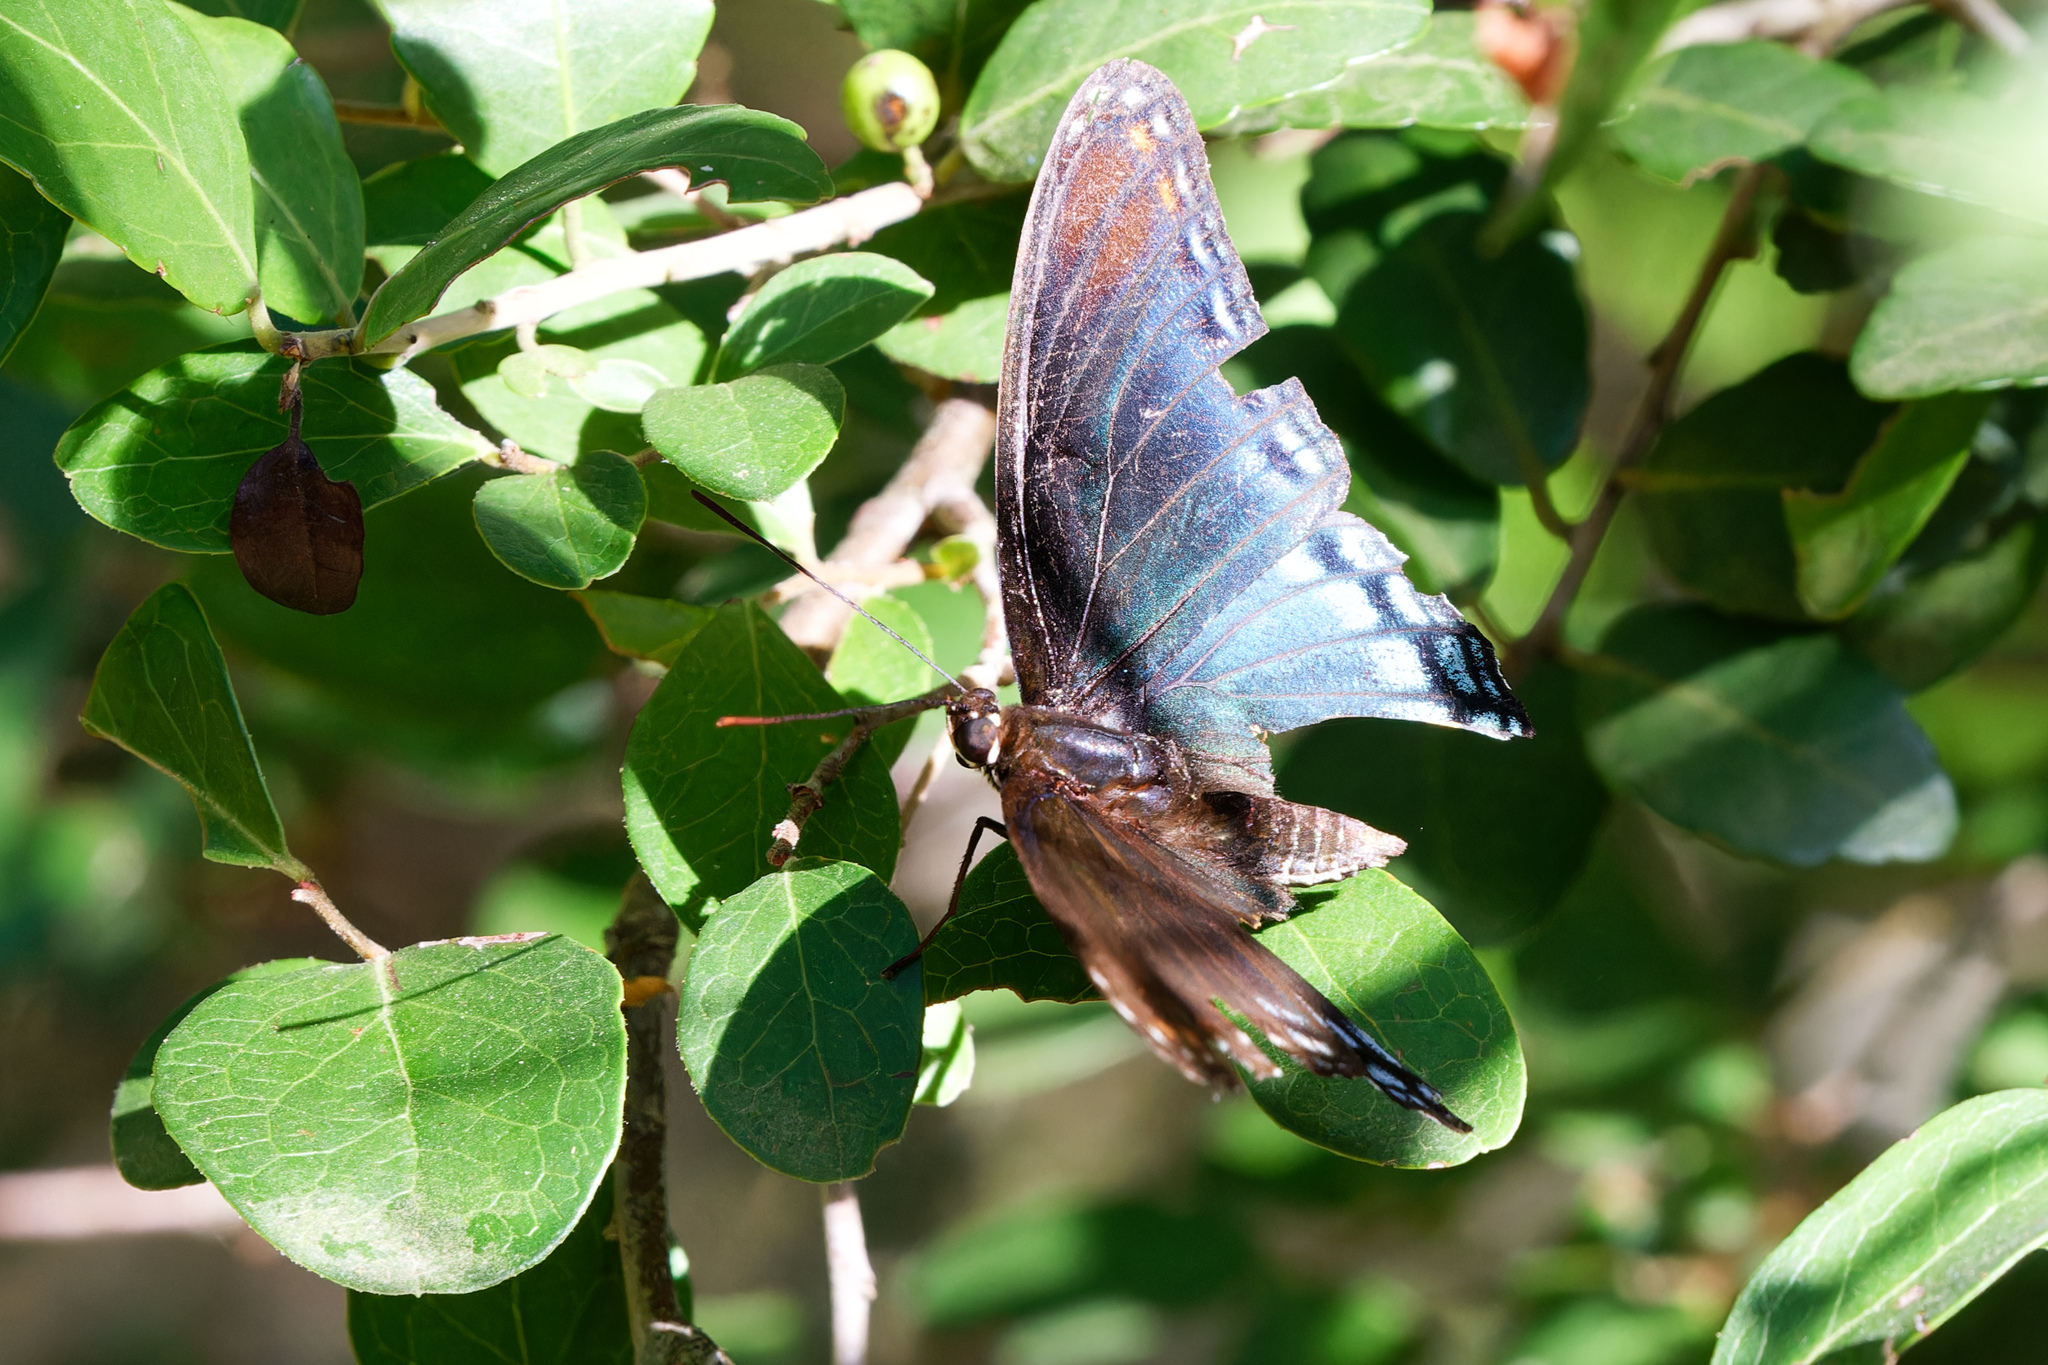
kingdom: Animalia
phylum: Arthropoda
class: Insecta
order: Lepidoptera
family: Nymphalidae
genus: Limenitis
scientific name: Limenitis astyanax
